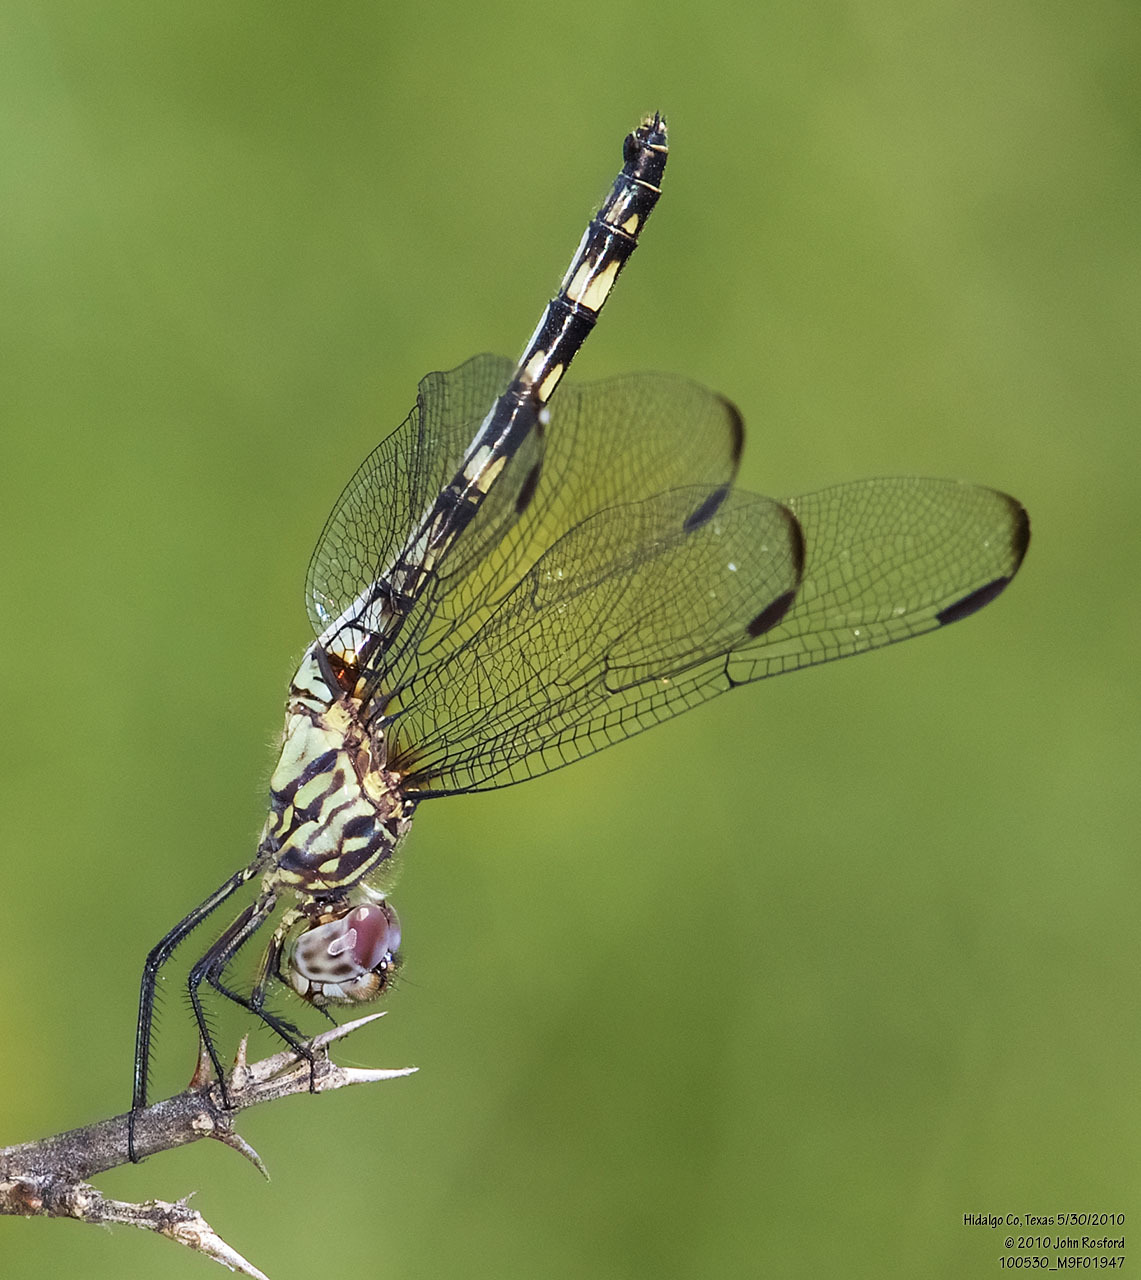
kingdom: Animalia
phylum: Arthropoda
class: Insecta
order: Odonata
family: Libellulidae
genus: Dythemis
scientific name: Dythemis nigrescens
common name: Black setwing
